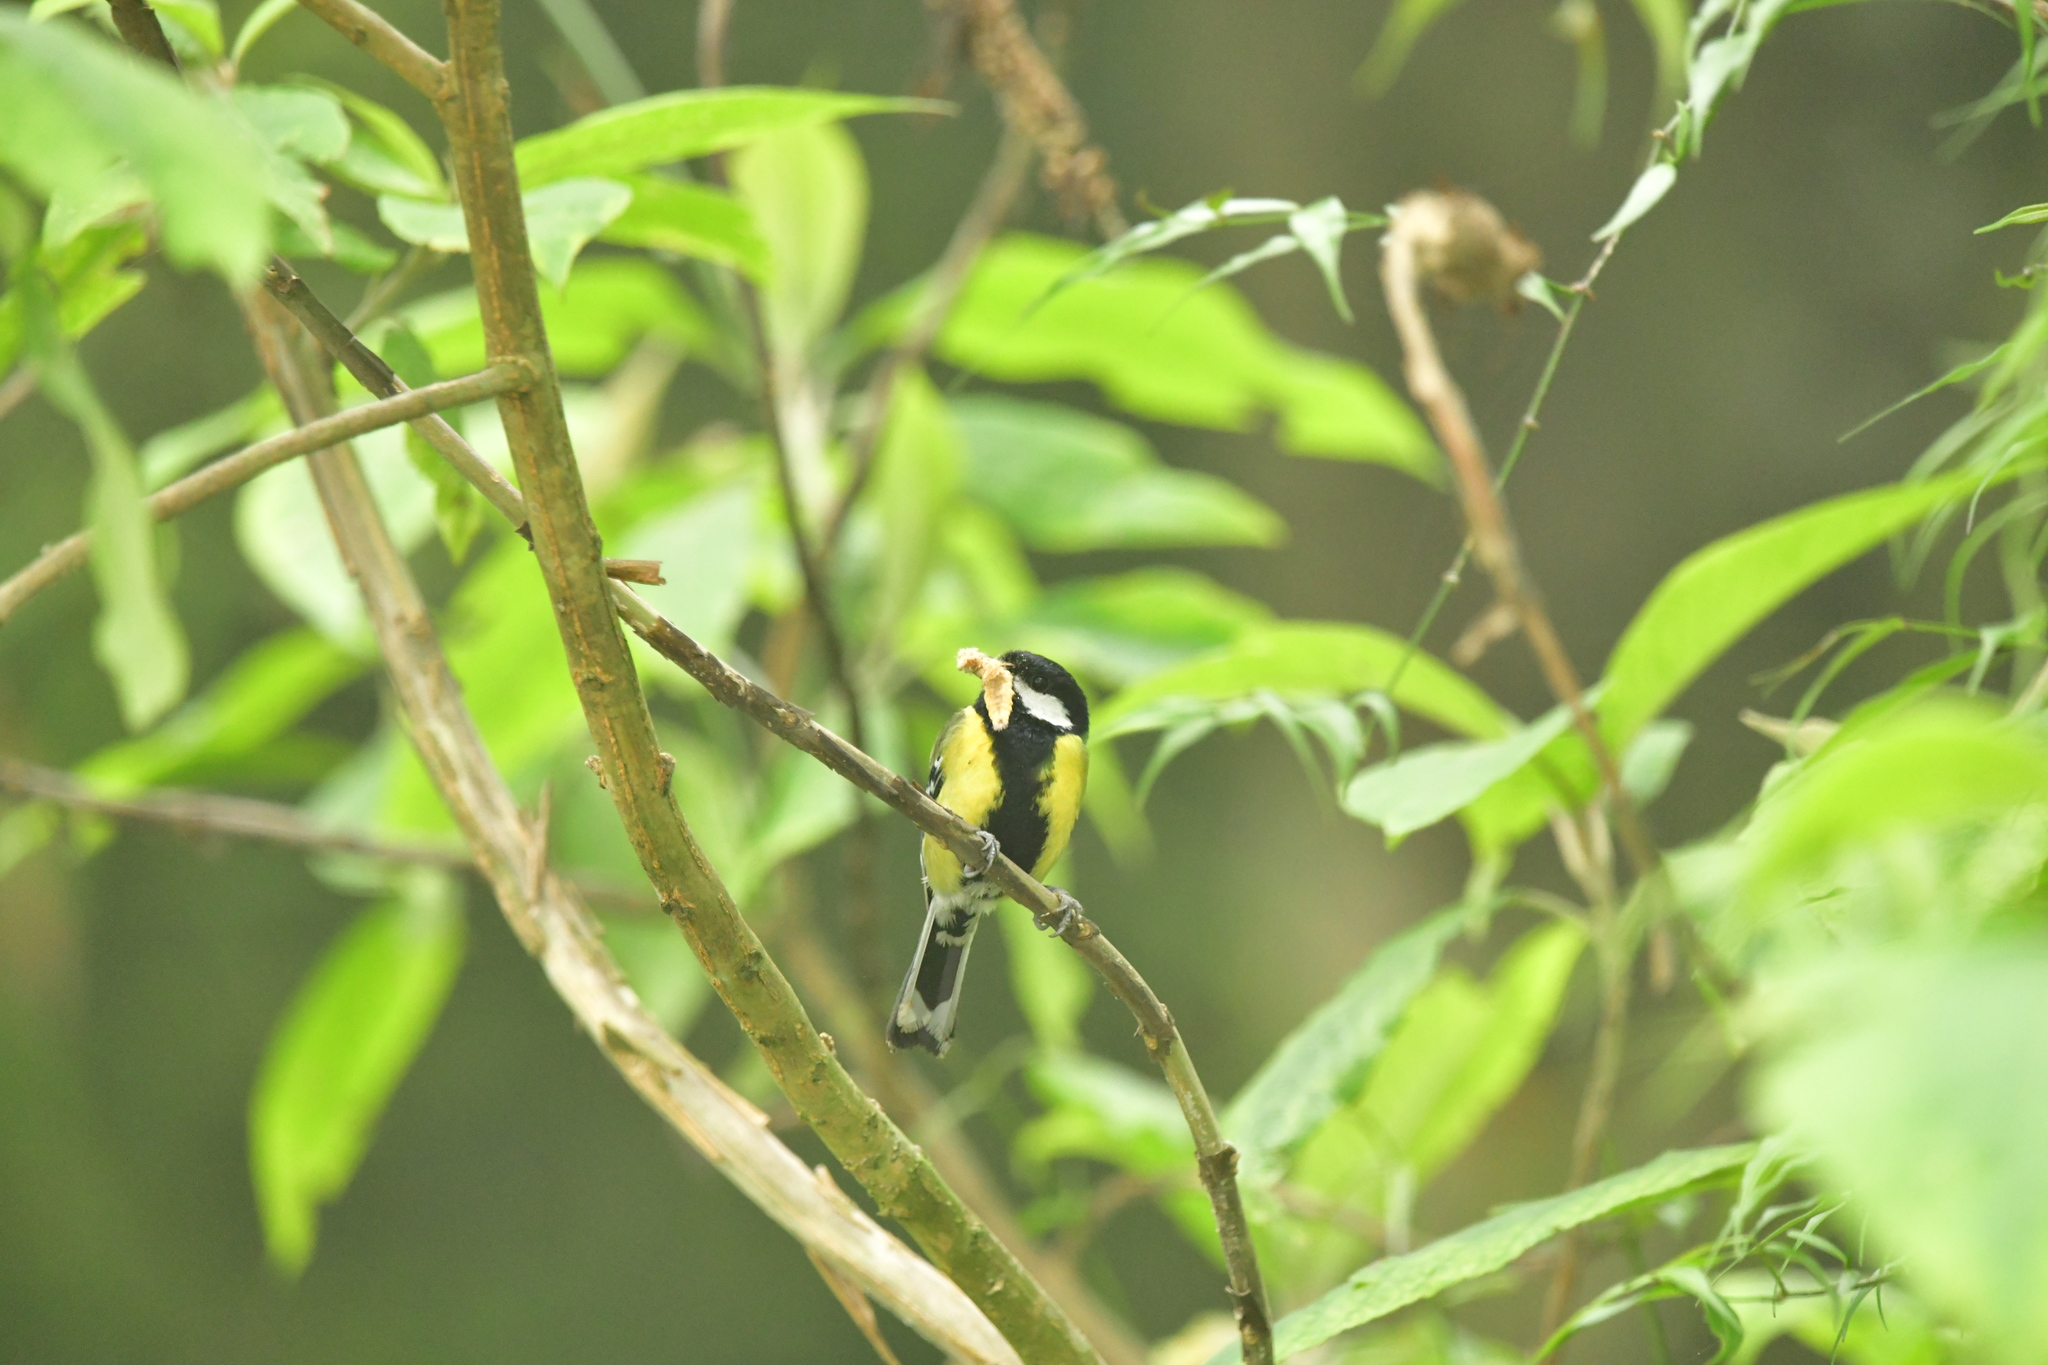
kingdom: Animalia
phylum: Chordata
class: Aves
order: Passeriformes
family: Paridae
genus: Parus
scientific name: Parus monticolus
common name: Green-backed tit
